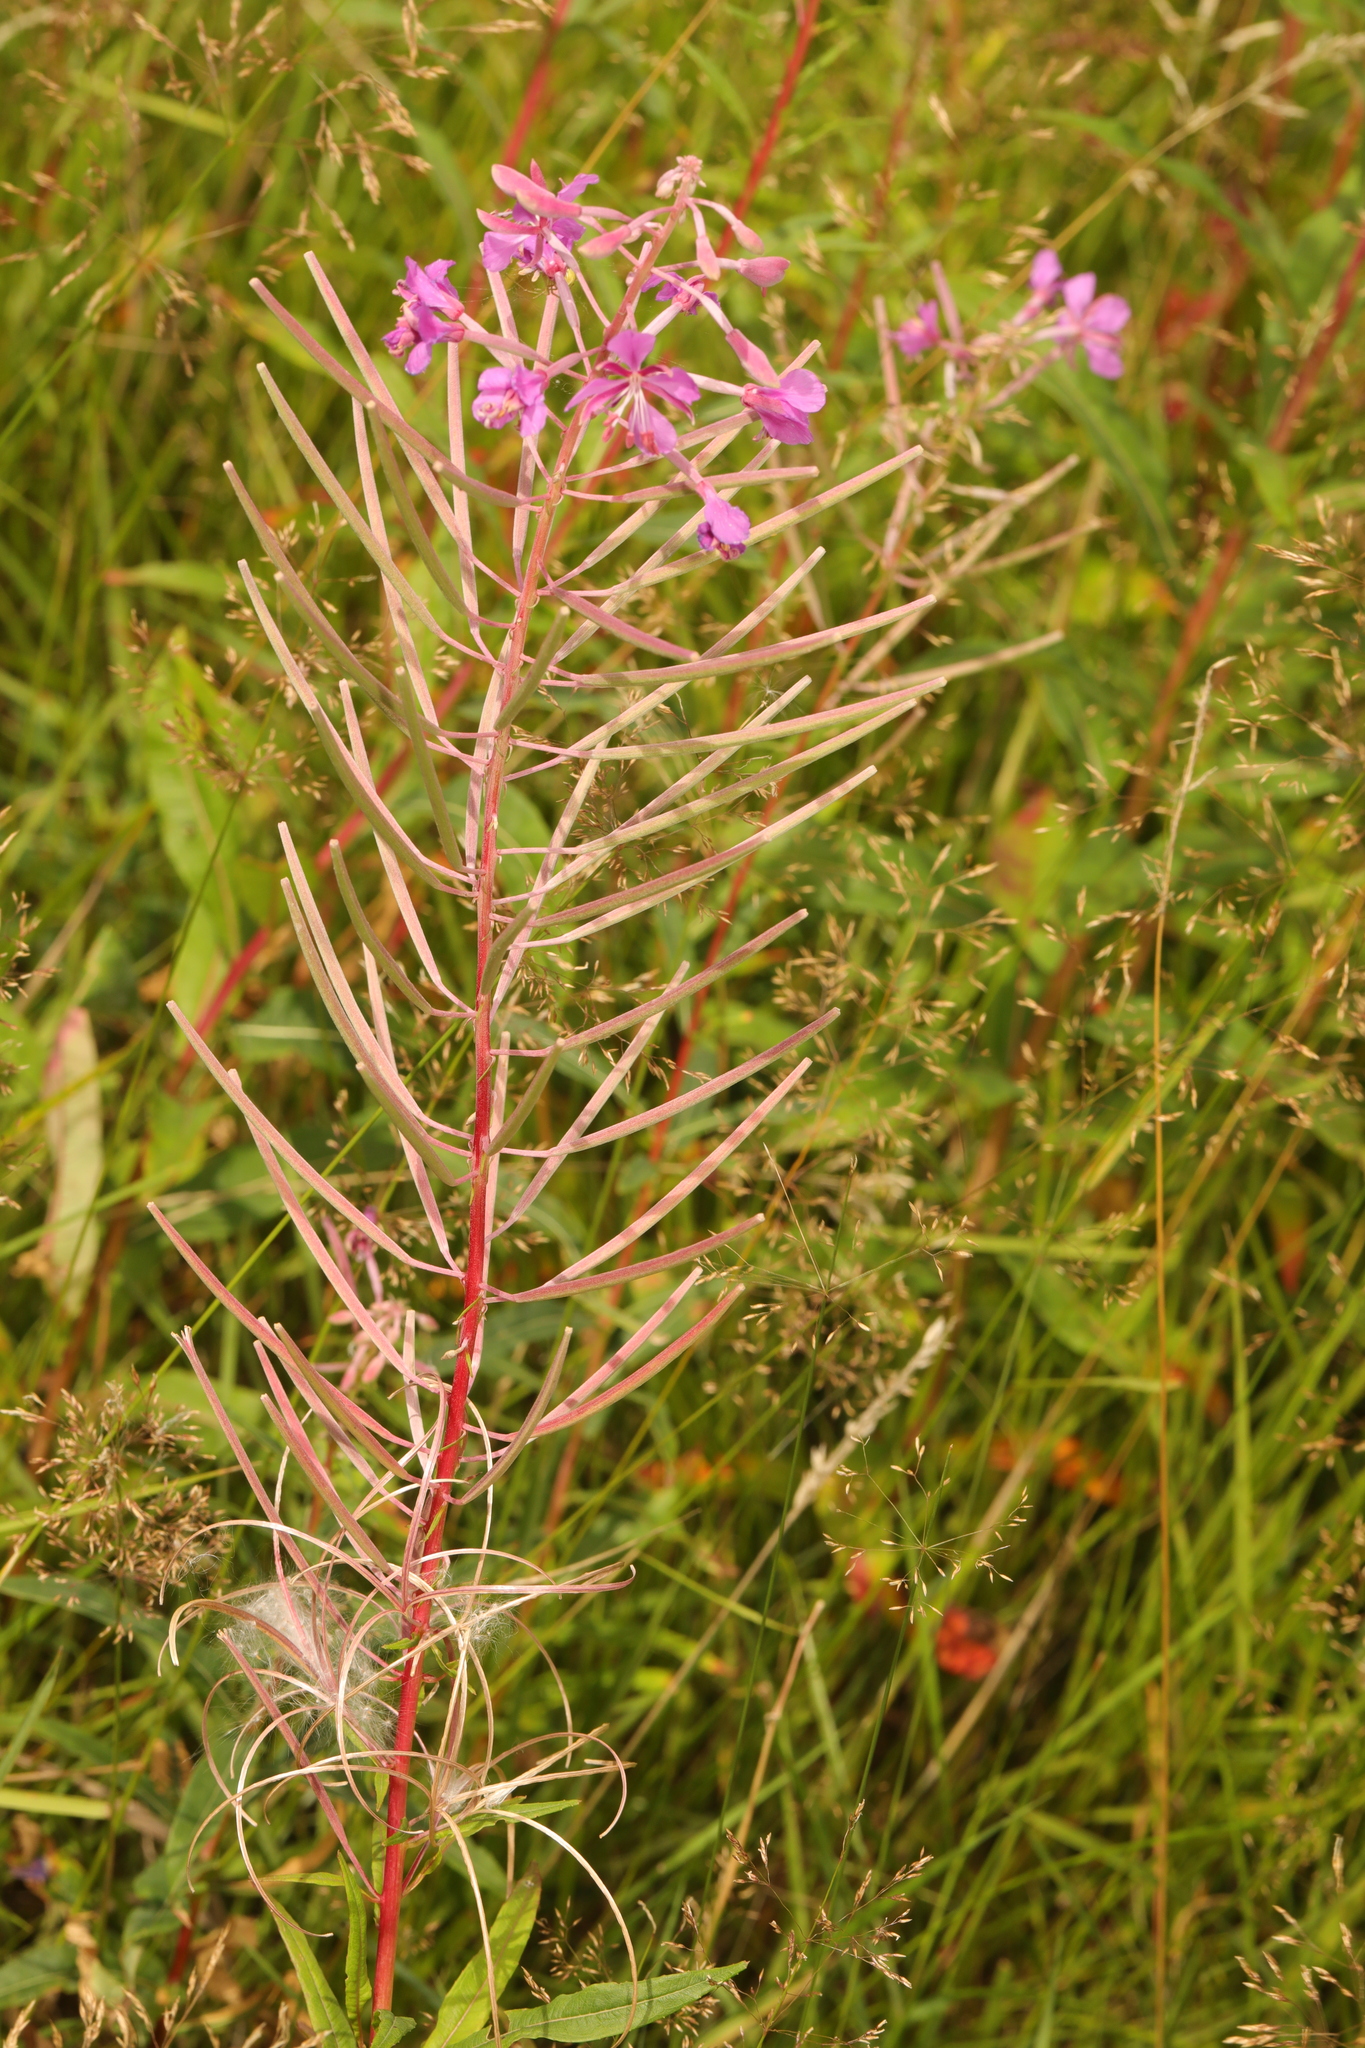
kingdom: Plantae
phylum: Tracheophyta
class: Magnoliopsida
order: Myrtales
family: Onagraceae
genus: Chamaenerion
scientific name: Chamaenerion angustifolium
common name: Fireweed
